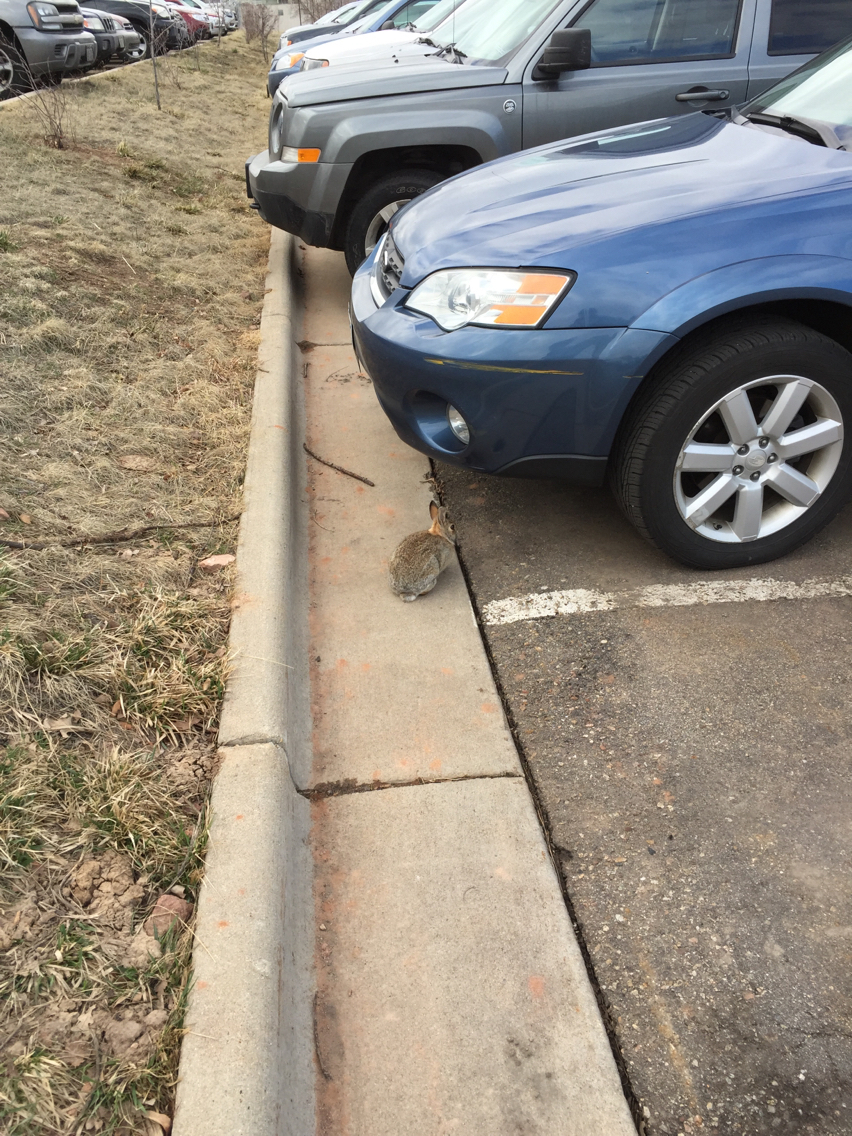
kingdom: Animalia
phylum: Chordata
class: Mammalia
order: Lagomorpha
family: Leporidae
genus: Sylvilagus
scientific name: Sylvilagus audubonii
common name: Desert cottontail
